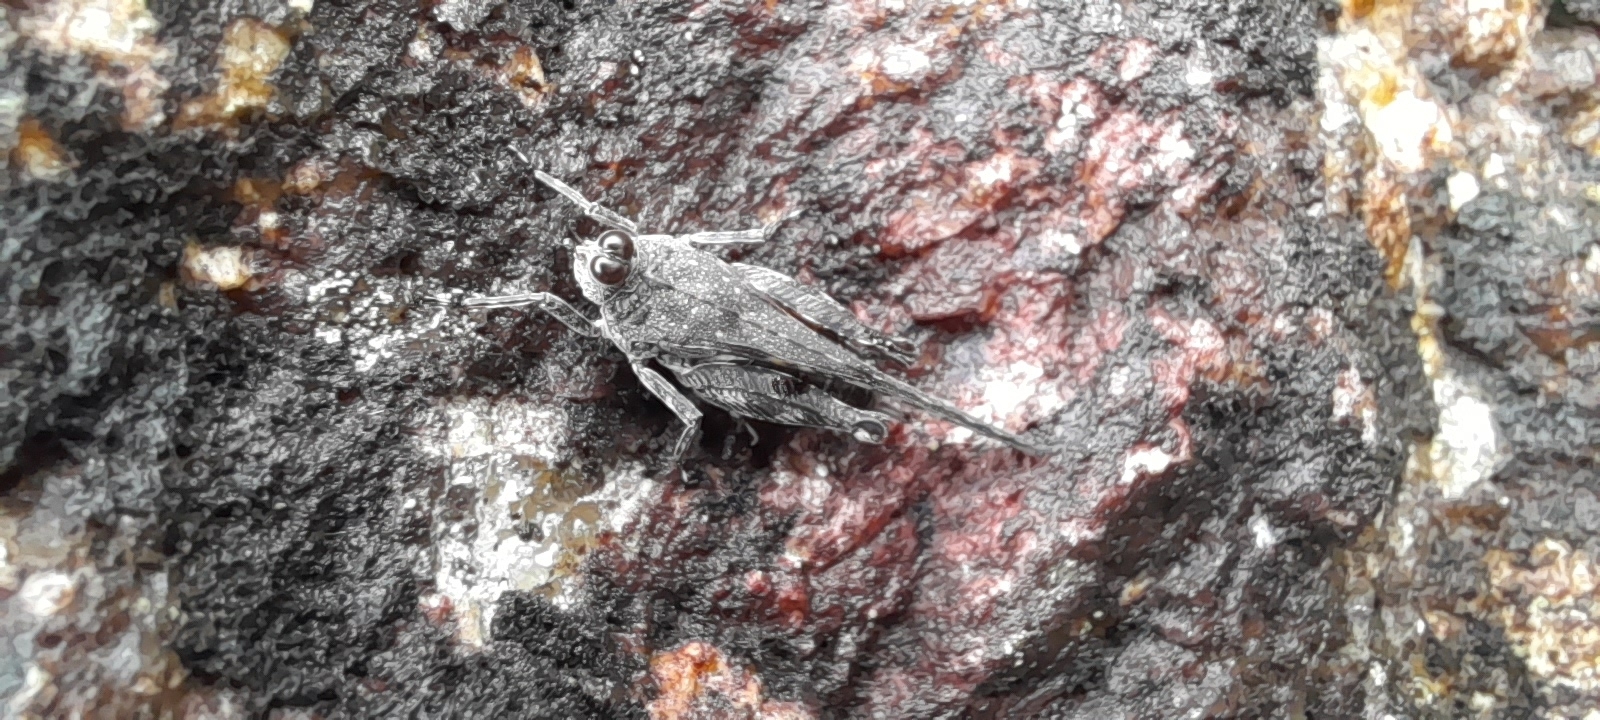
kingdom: Animalia
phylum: Arthropoda
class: Insecta
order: Orthoptera
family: Tetrigidae
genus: Systolederus
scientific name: Systolederus greeni
